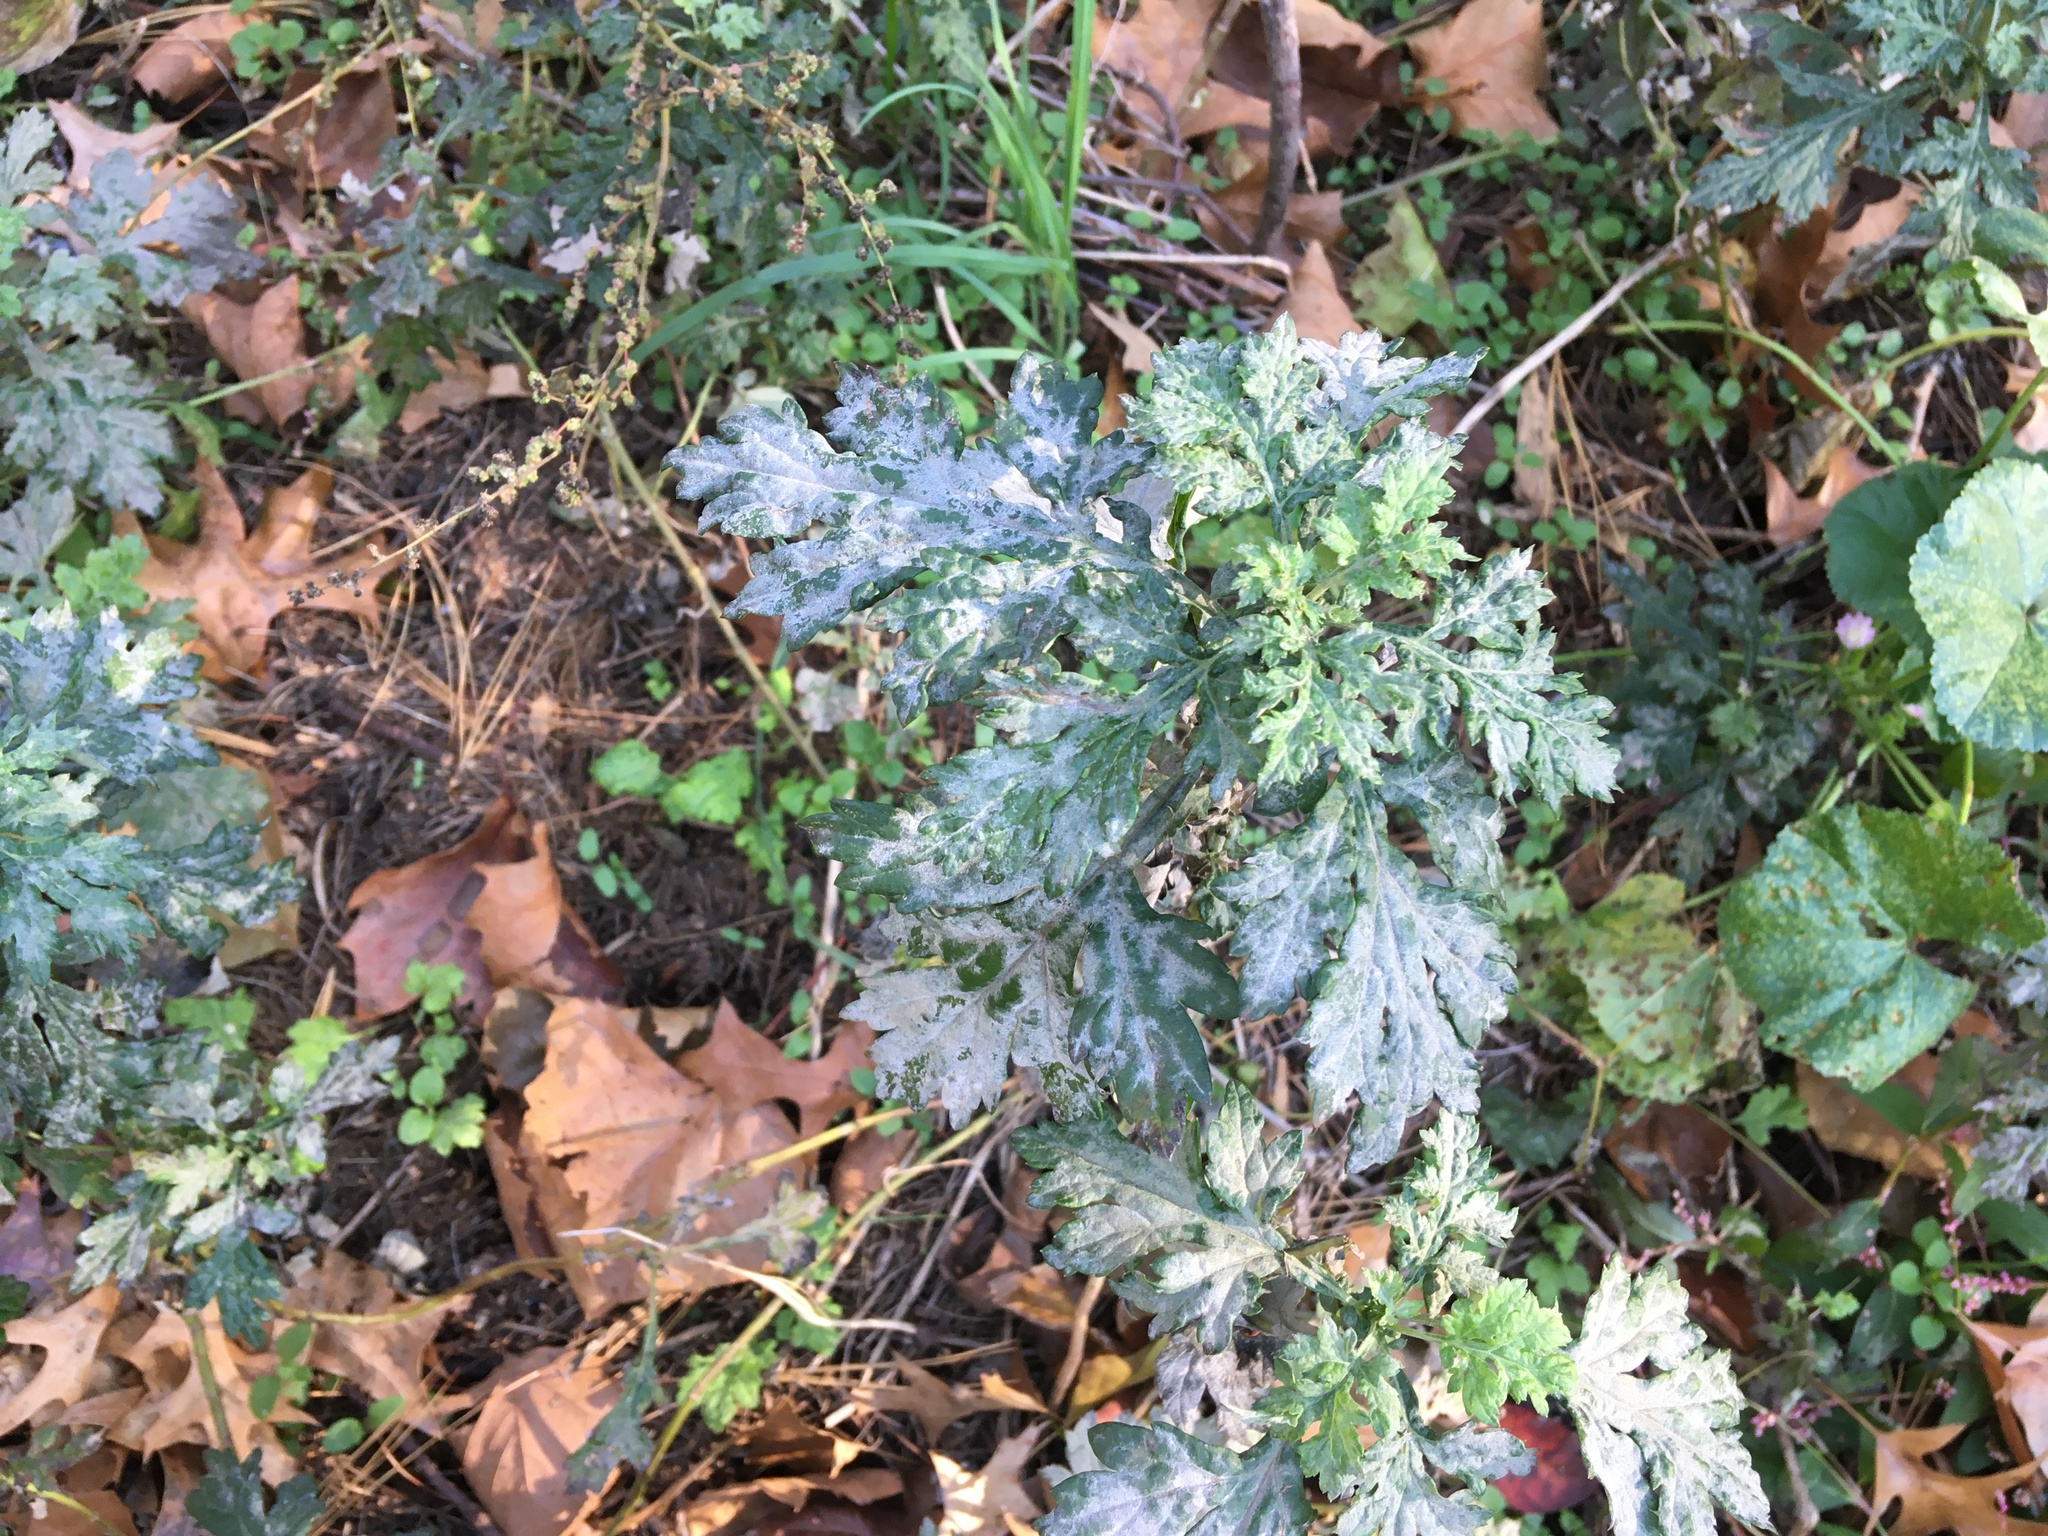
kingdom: Plantae
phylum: Tracheophyta
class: Magnoliopsida
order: Asterales
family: Asteraceae
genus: Artemisia
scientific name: Artemisia vulgaris
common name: Mugwort
